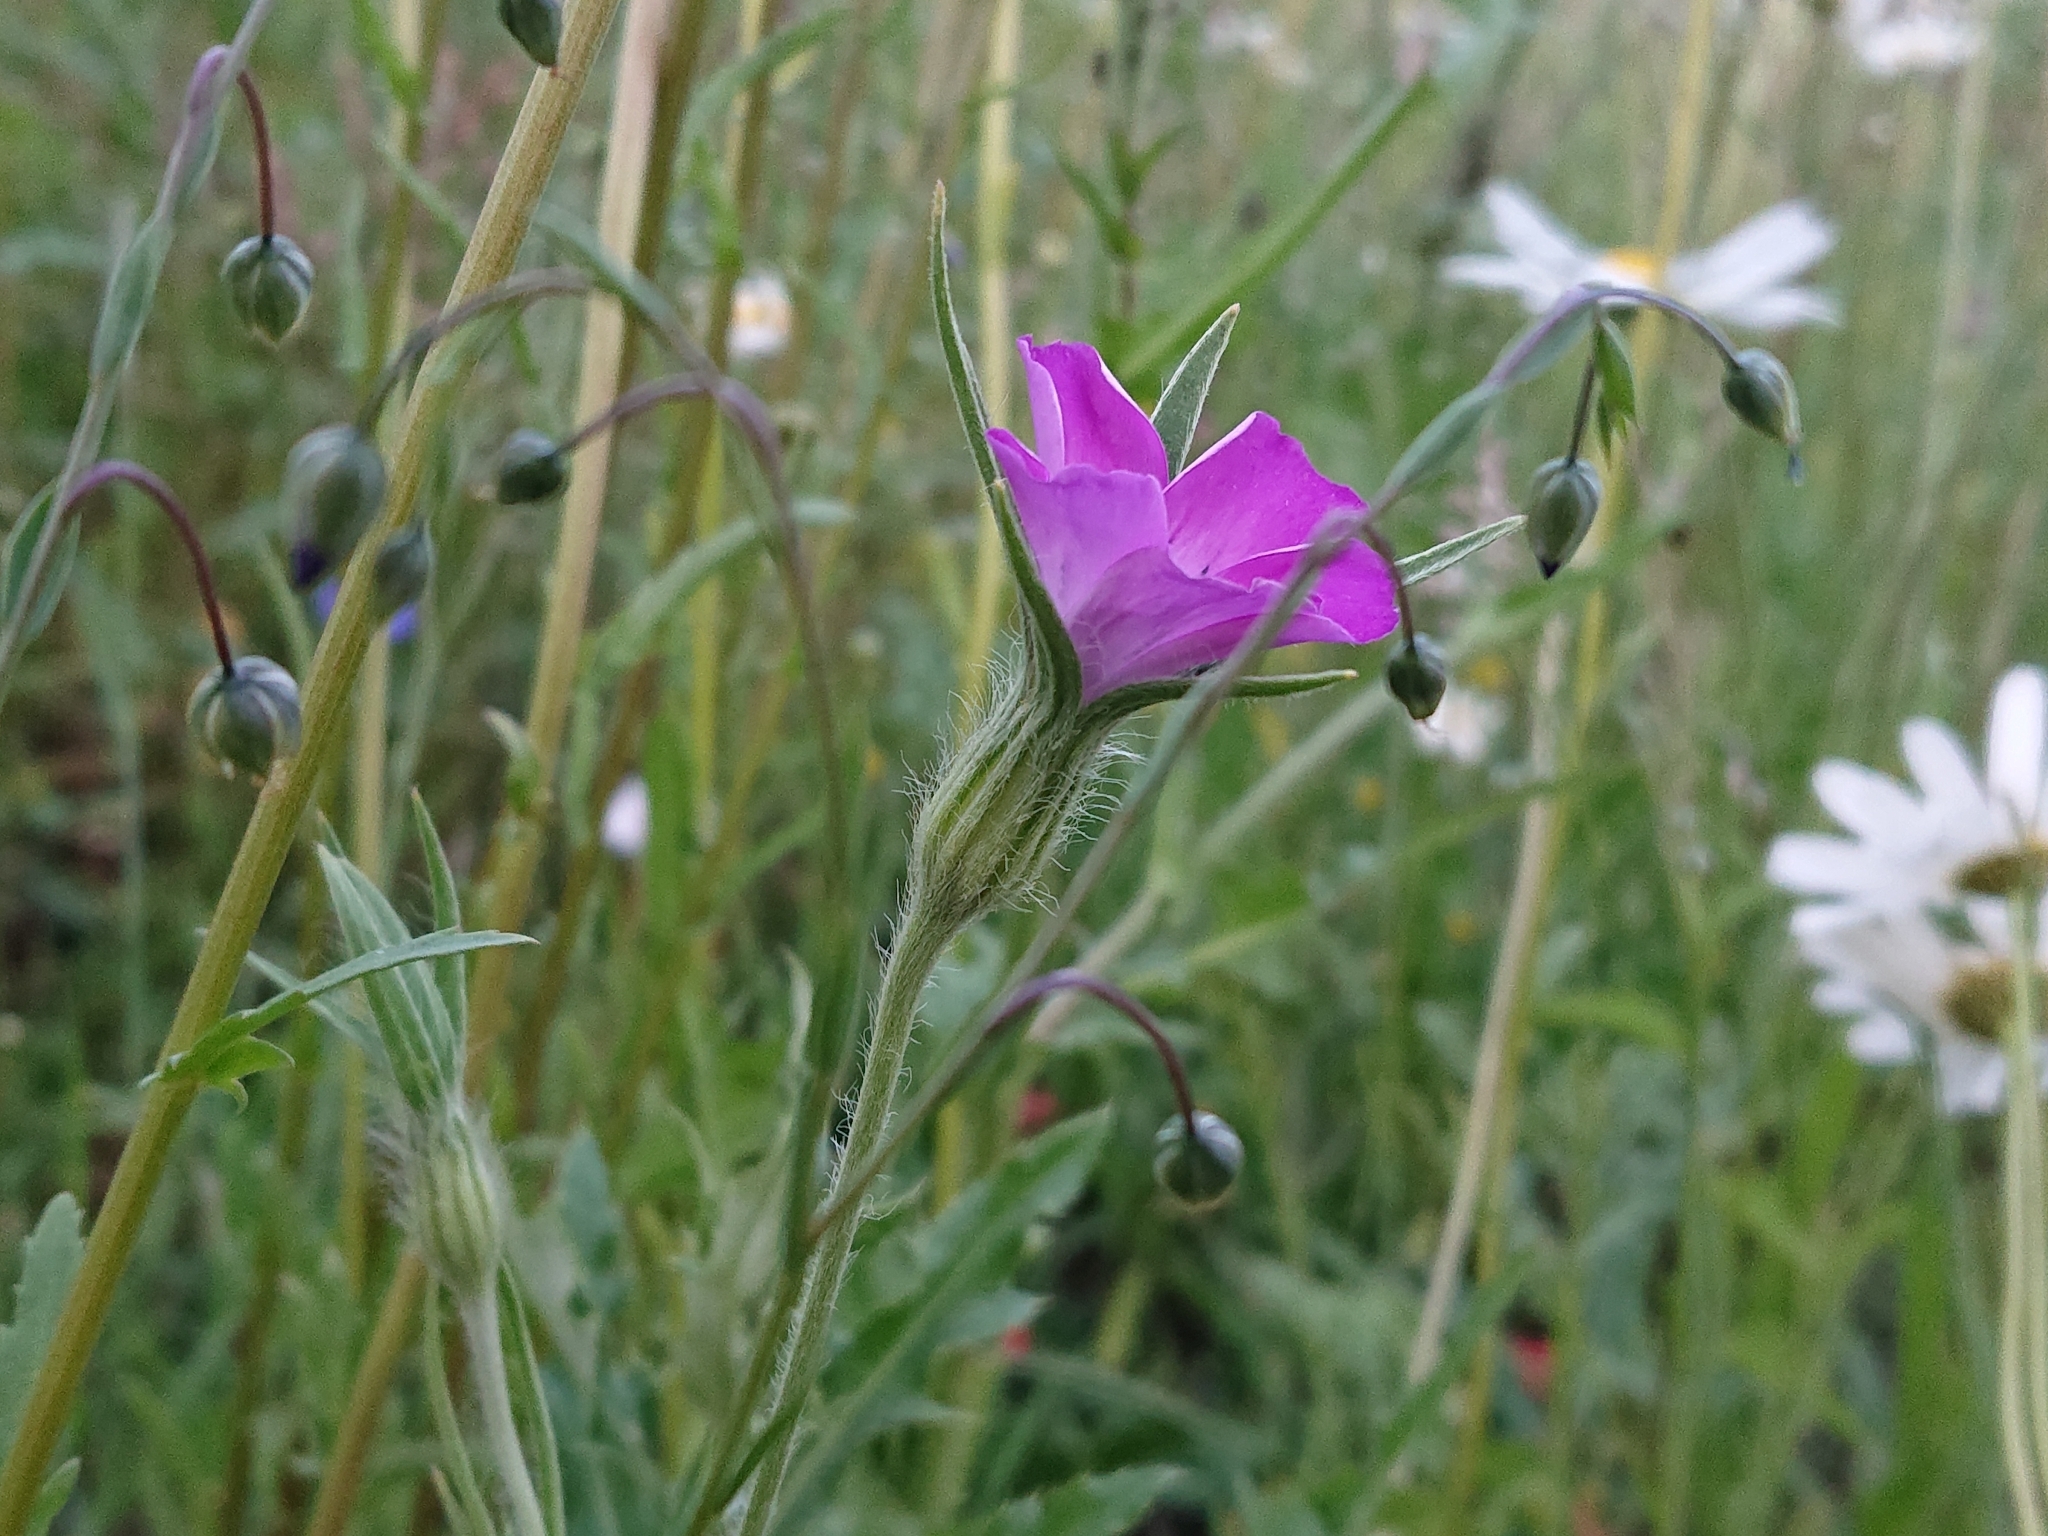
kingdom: Plantae
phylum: Tracheophyta
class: Magnoliopsida
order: Caryophyllales
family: Caryophyllaceae
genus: Agrostemma
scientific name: Agrostemma githago
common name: Common corncockle
